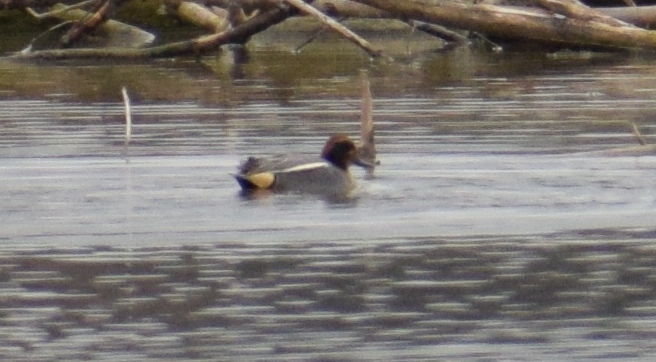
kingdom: Animalia
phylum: Chordata
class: Aves
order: Anseriformes
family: Anatidae
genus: Anas
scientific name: Anas crecca
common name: Eurasian teal
